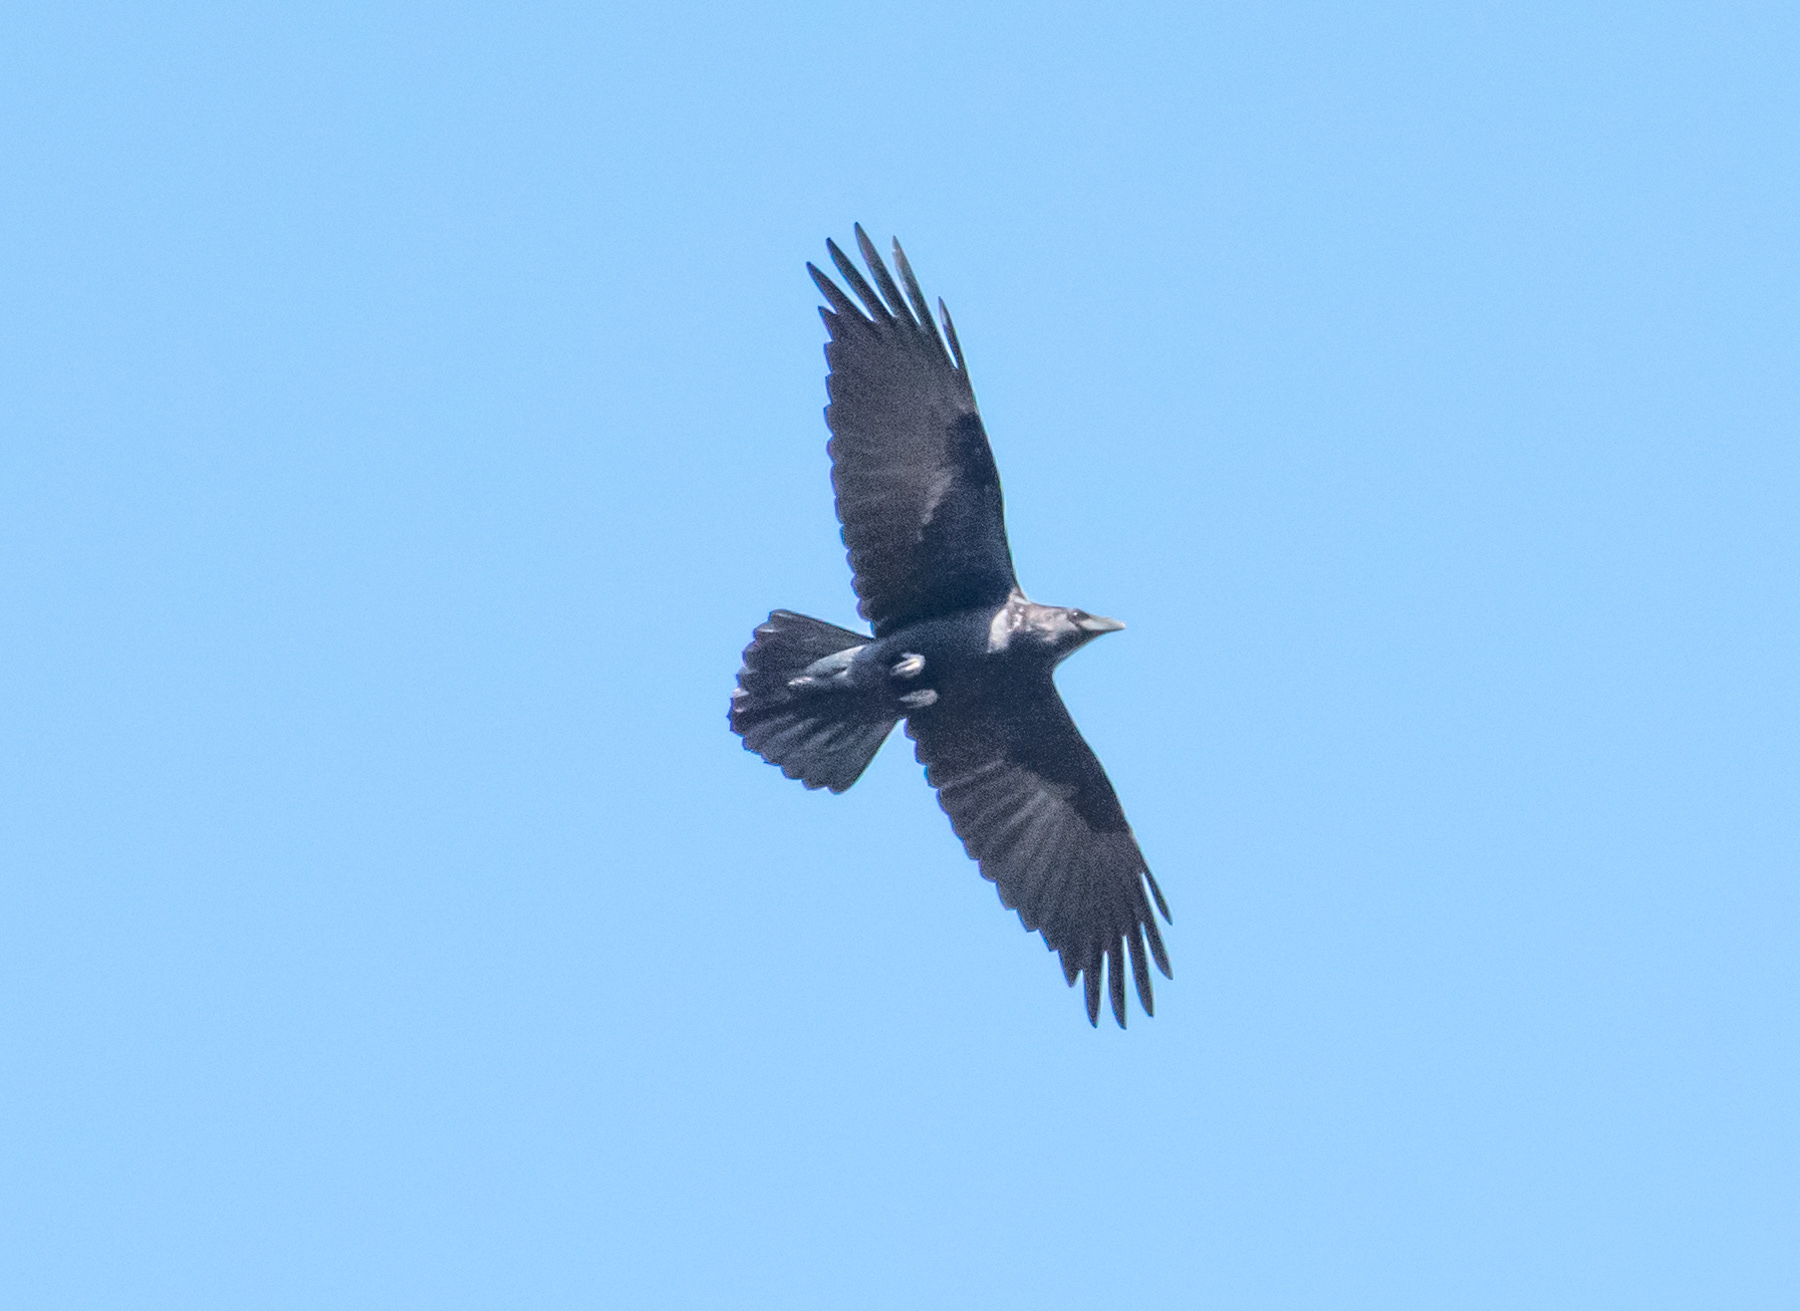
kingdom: Animalia
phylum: Chordata
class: Aves
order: Passeriformes
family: Corvidae
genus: Corvus
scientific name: Corvus corax
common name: Common raven
